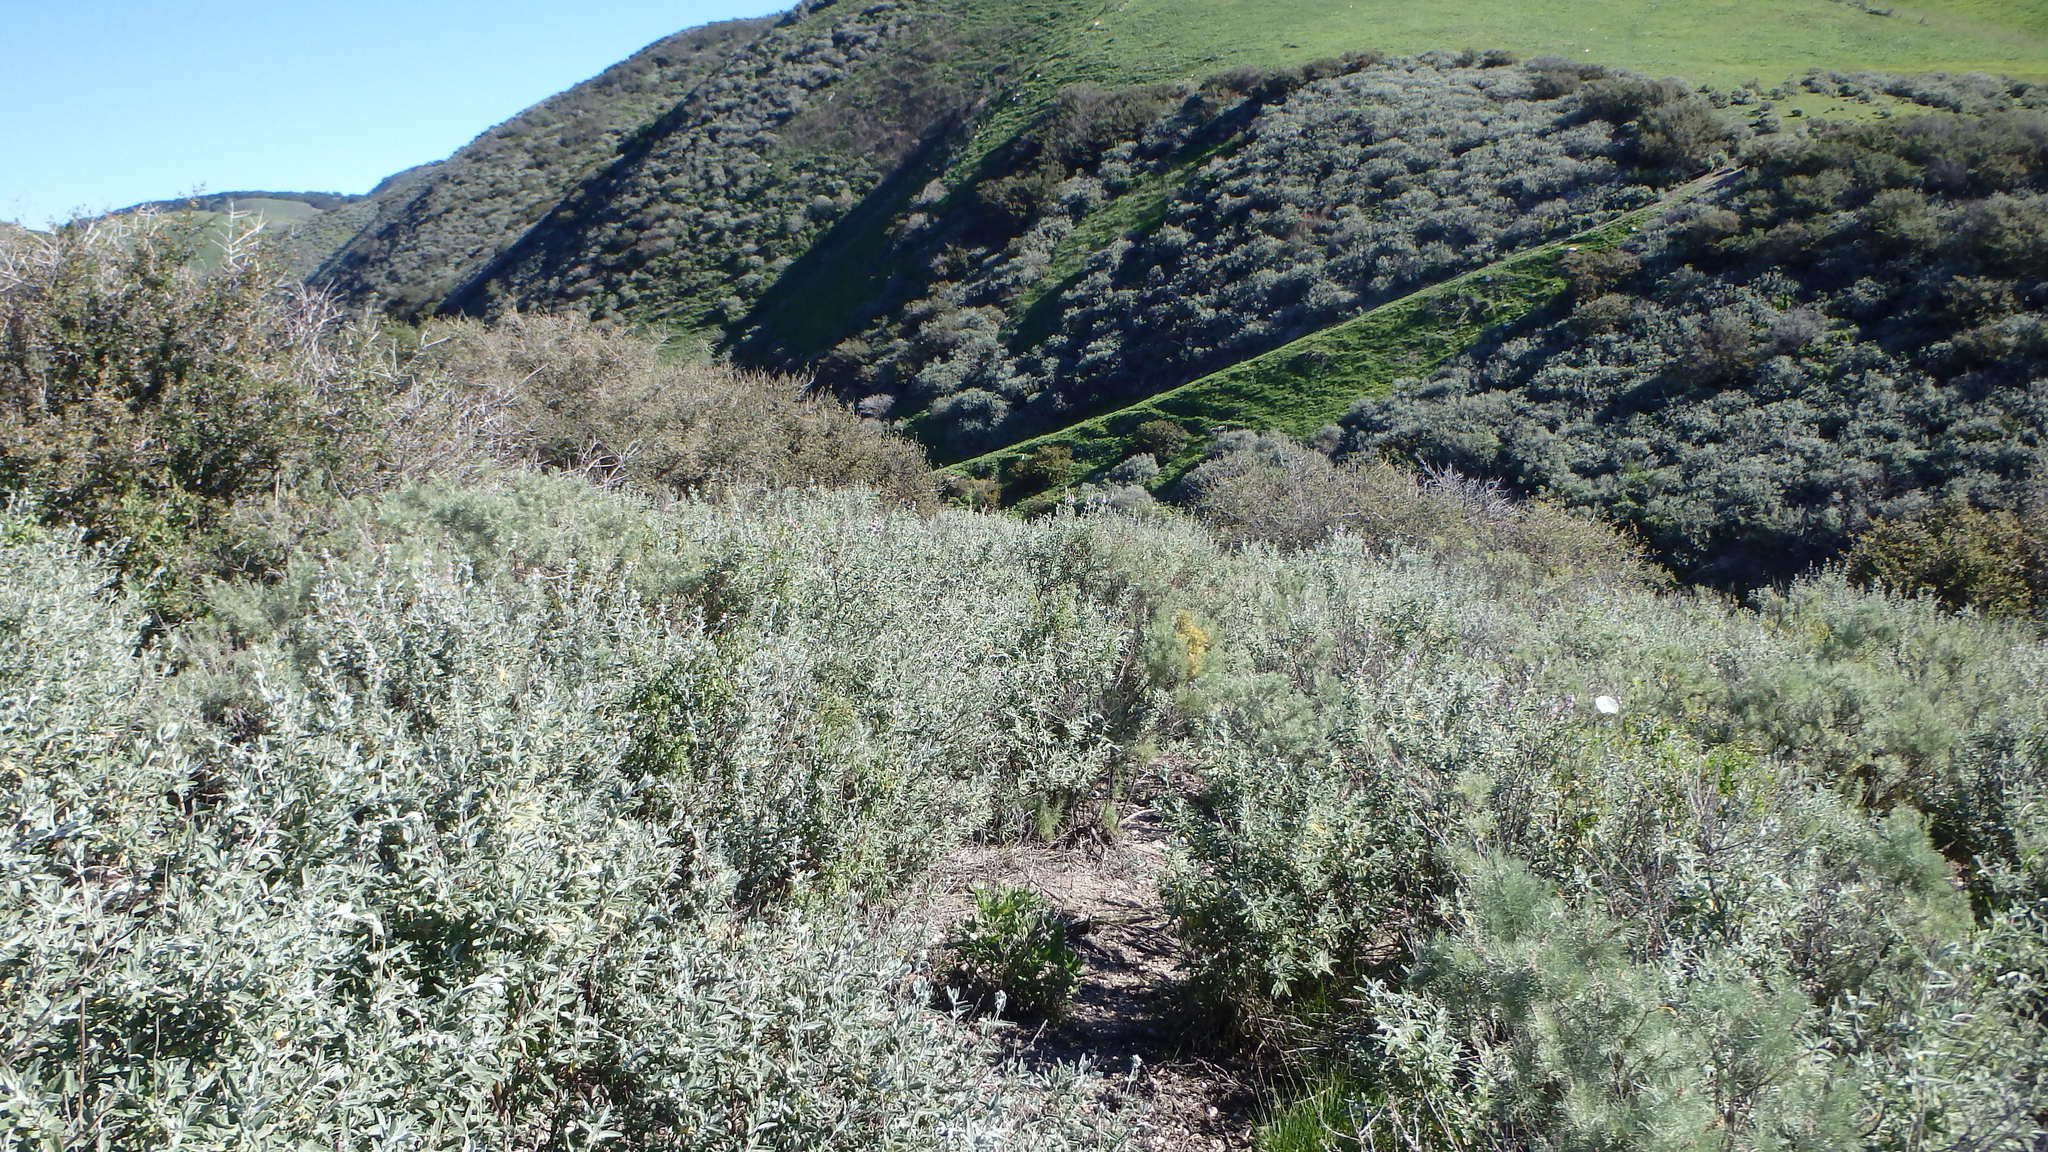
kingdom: Plantae
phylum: Tracheophyta
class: Magnoliopsida
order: Asterales
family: Asteraceae
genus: Artemisia
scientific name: Artemisia californica
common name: California sagebrush
